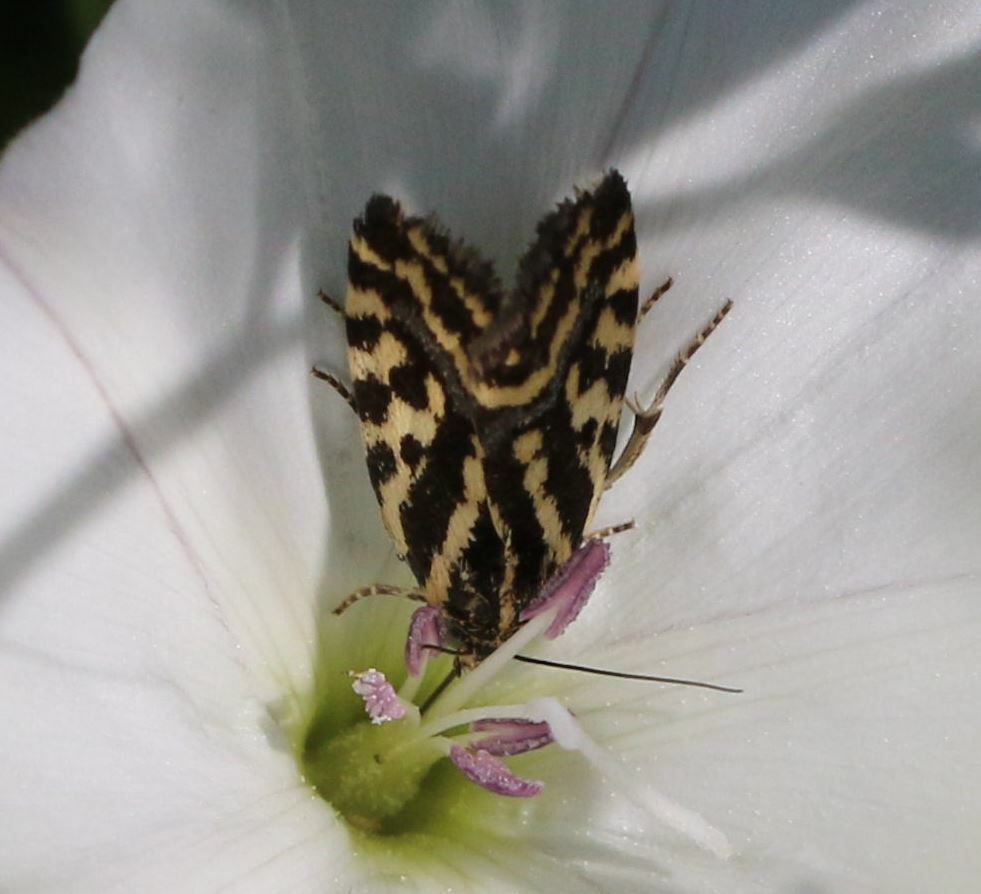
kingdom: Animalia
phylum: Arthropoda
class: Insecta
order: Lepidoptera
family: Noctuidae
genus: Acontia
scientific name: Acontia trabealis
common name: Spotted sulphur
